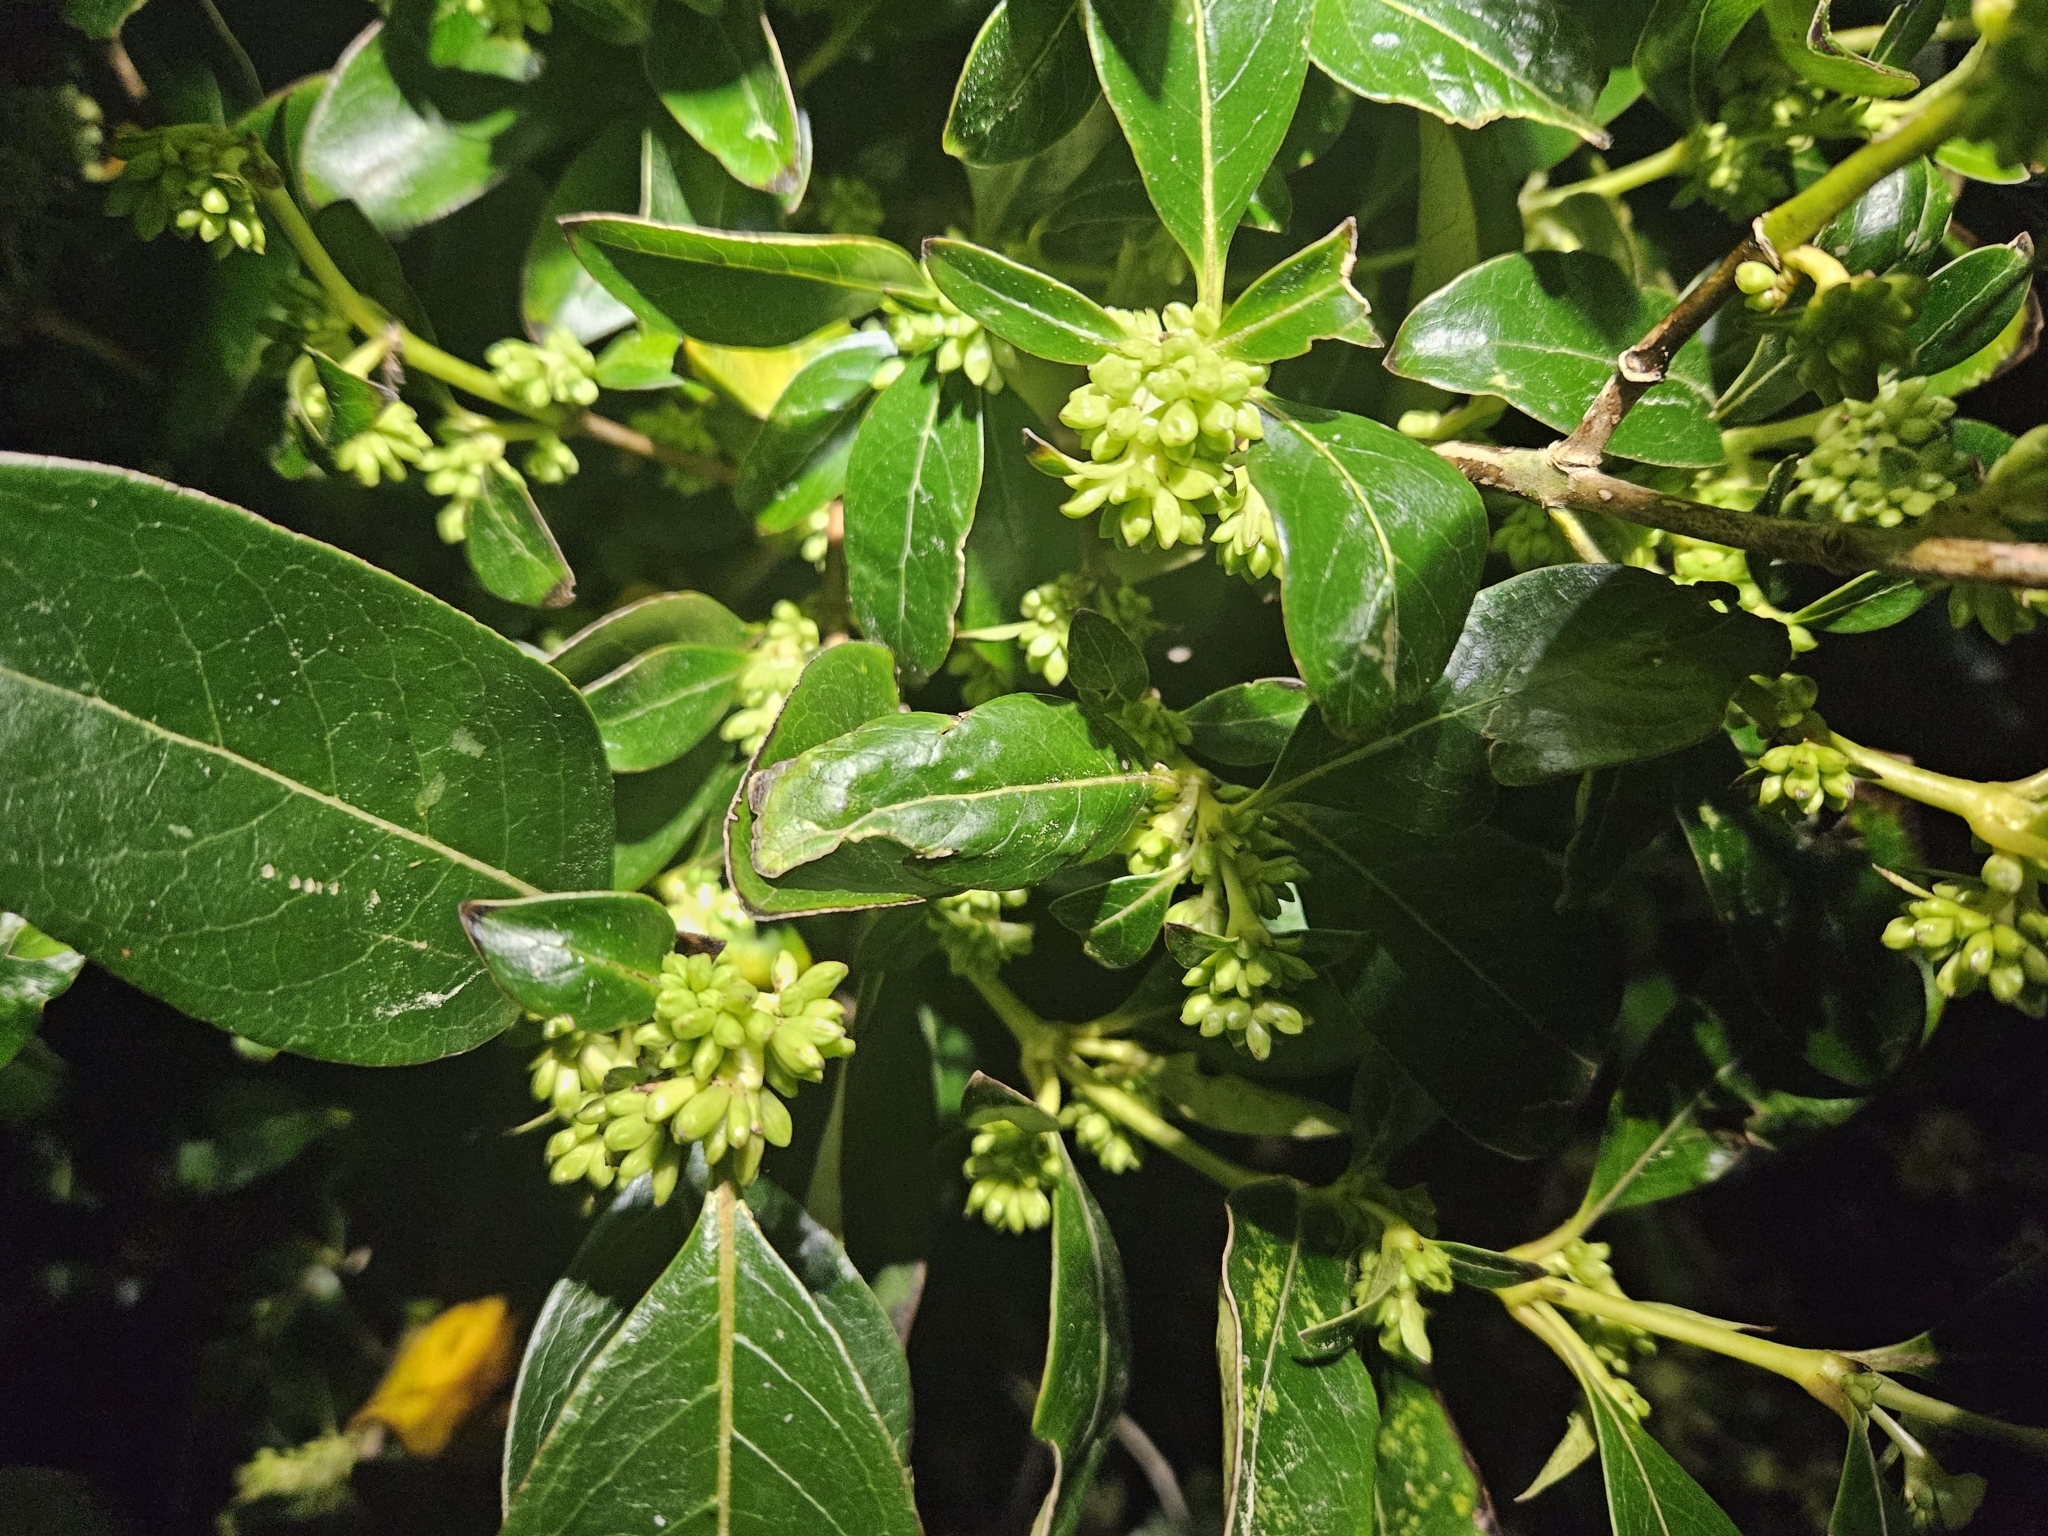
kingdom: Plantae
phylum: Tracheophyta
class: Magnoliopsida
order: Gentianales
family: Rubiaceae
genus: Coprosma
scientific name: Coprosma robusta
